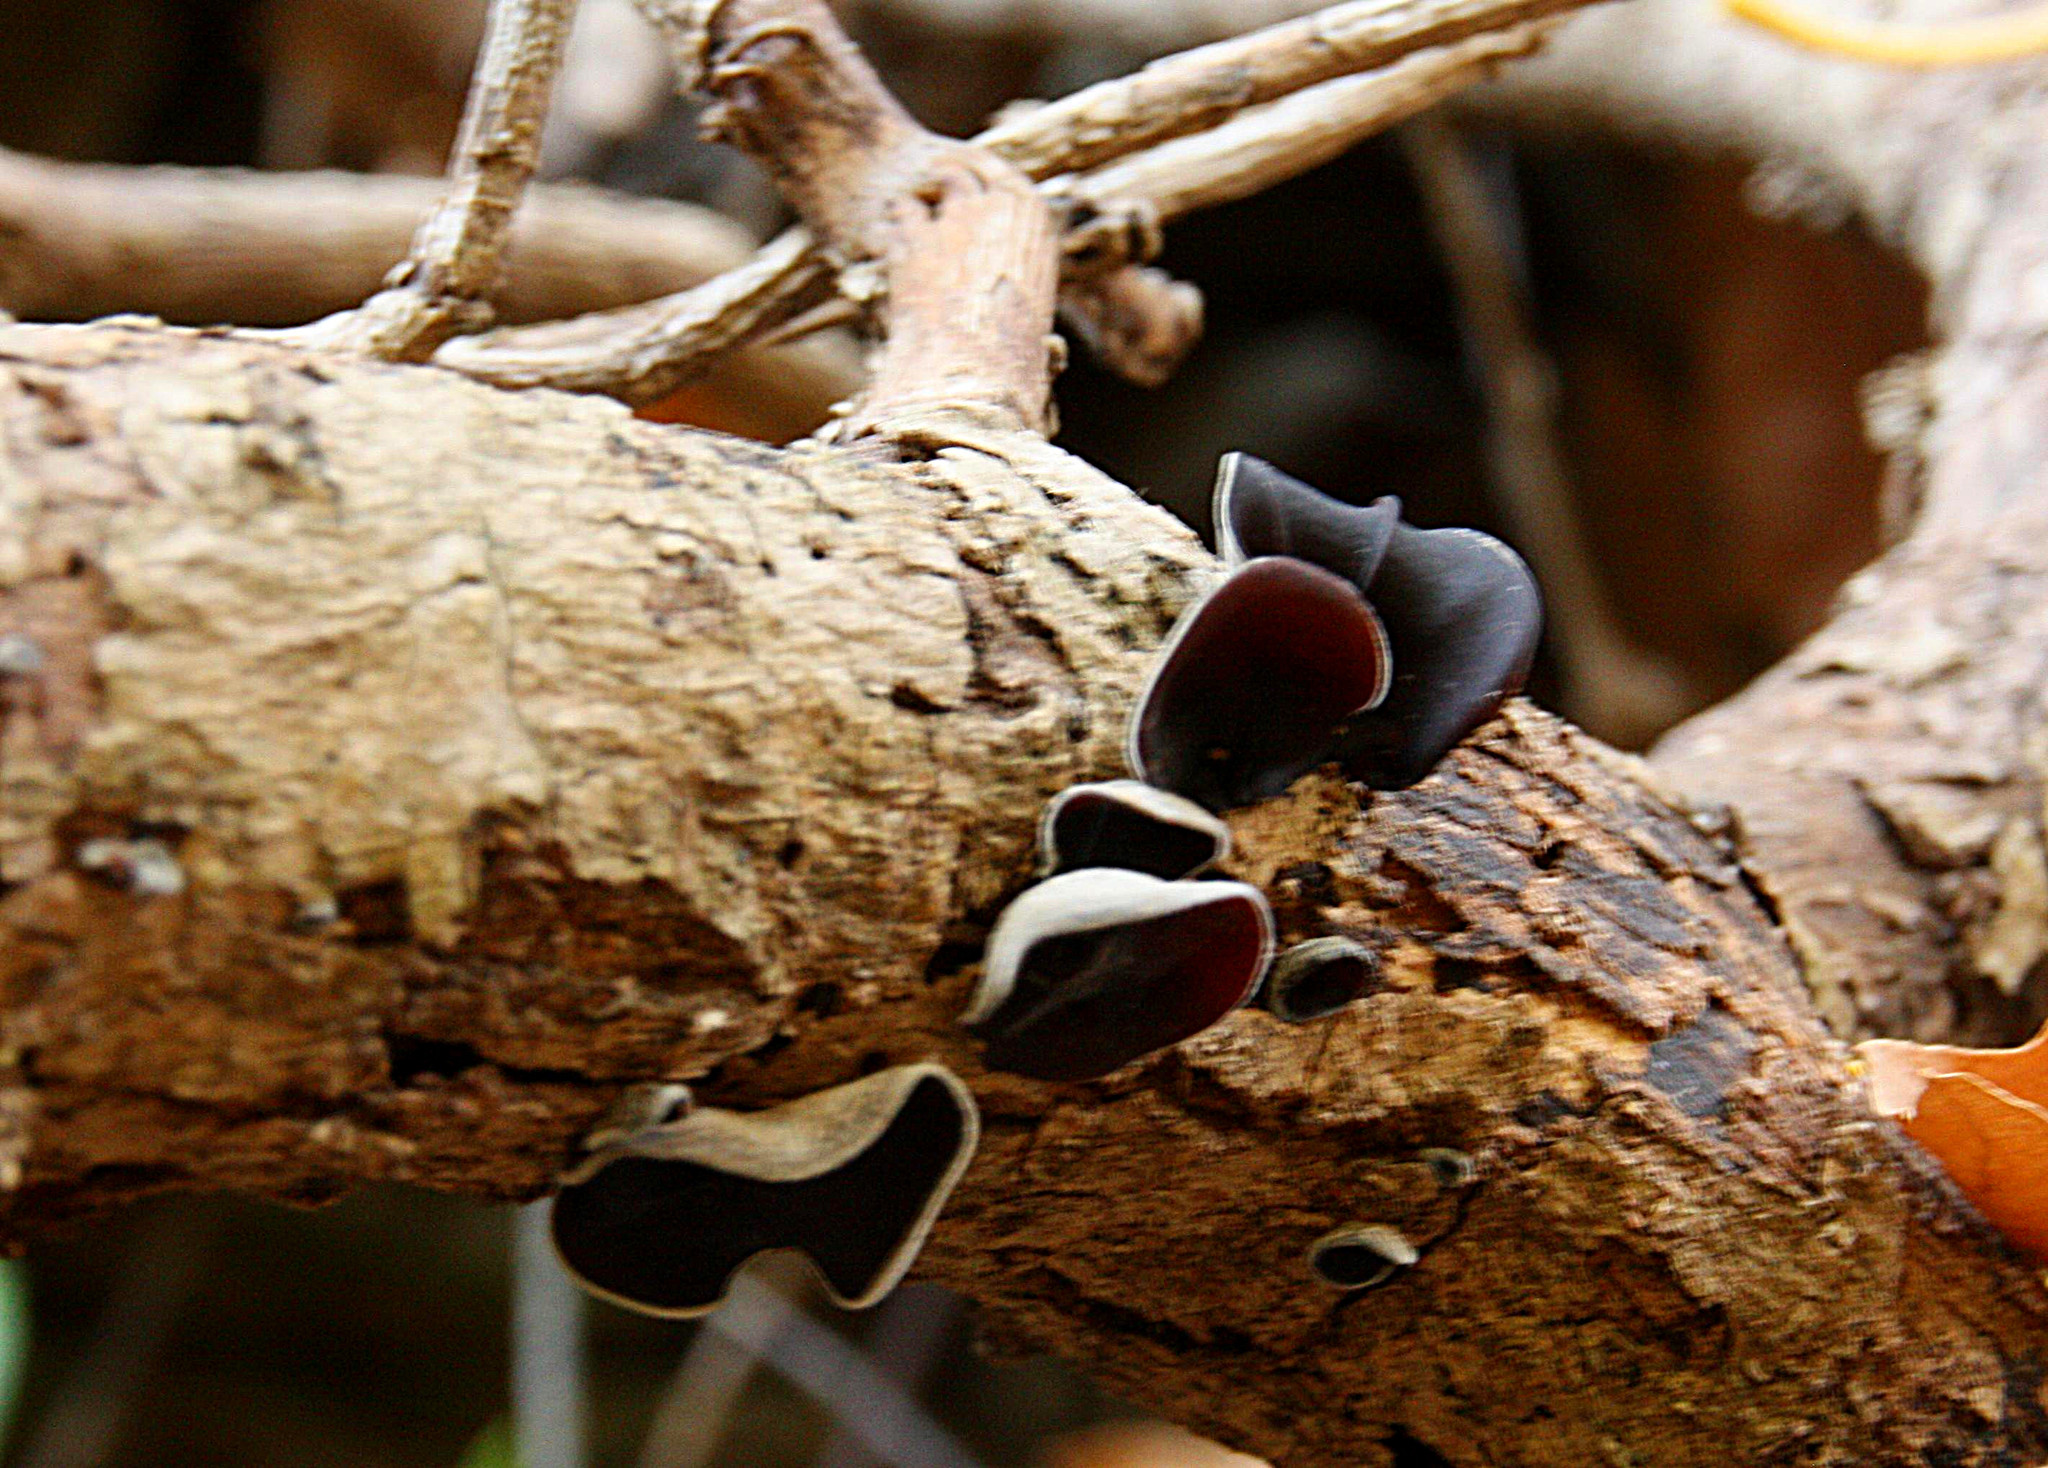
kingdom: Fungi
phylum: Basidiomycota
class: Agaricomycetes
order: Agaricales
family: Schizophyllaceae
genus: Schizophyllum
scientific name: Schizophyllum amplum
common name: Poplar bells
